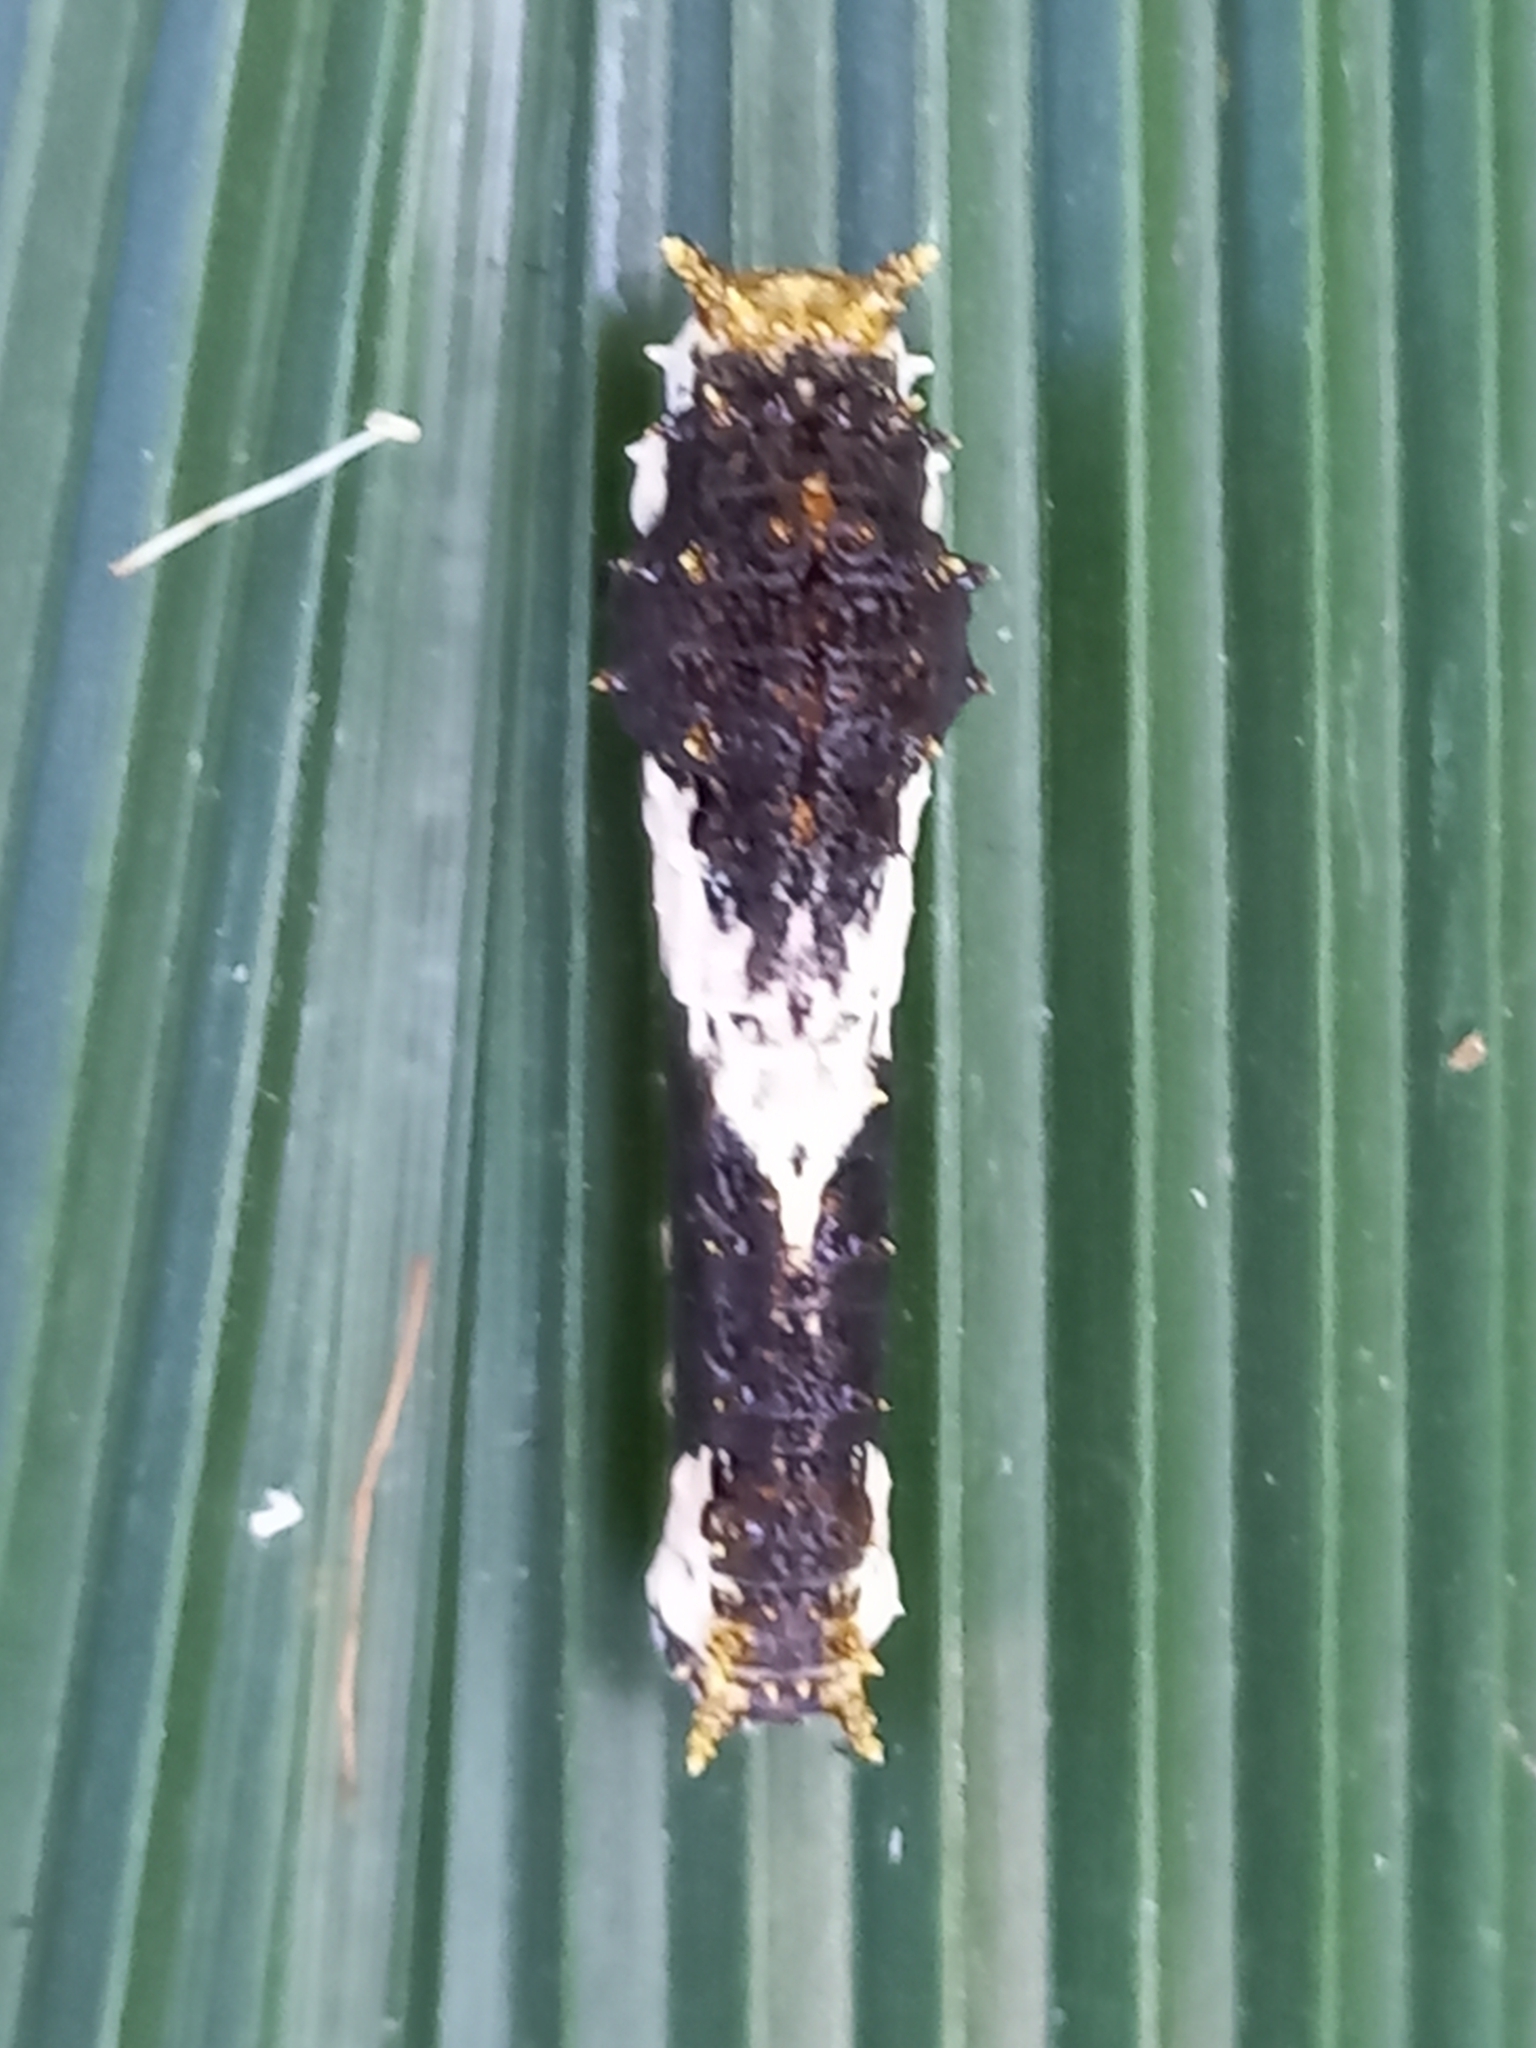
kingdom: Animalia
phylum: Arthropoda
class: Insecta
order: Lepidoptera
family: Papilionidae
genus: Papilio
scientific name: Papilio demodocus
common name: Christmas butterfly
